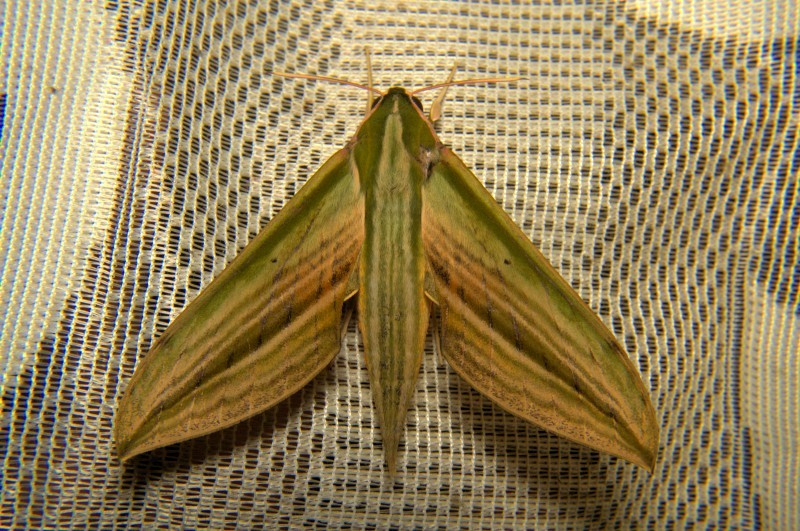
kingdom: Animalia
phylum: Arthropoda
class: Insecta
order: Lepidoptera
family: Sphingidae
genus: Cechetra
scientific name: Cechetra lineosa
